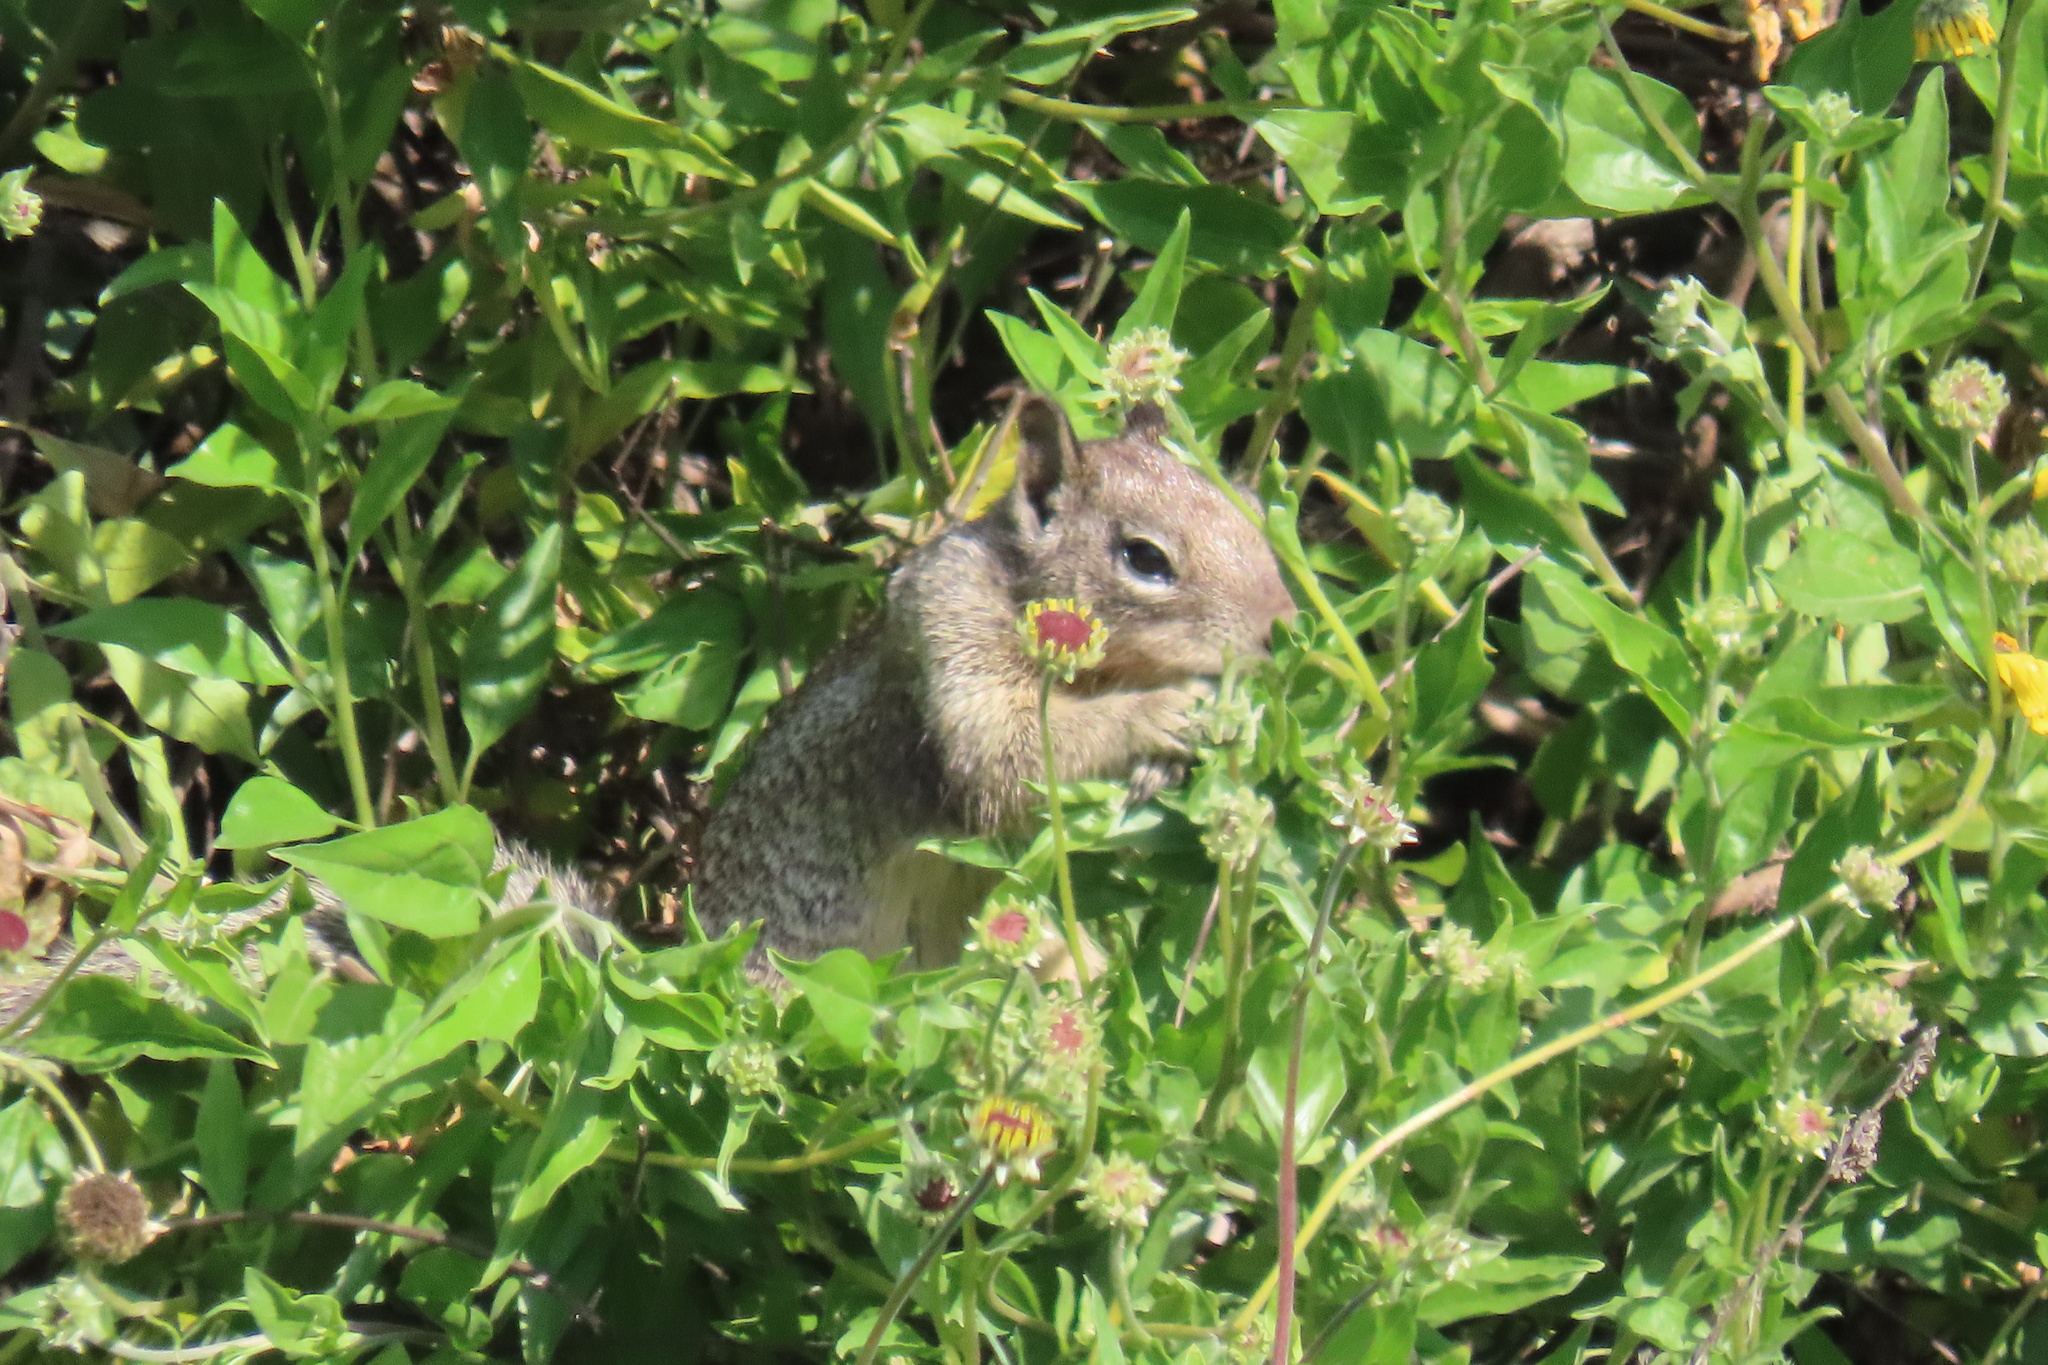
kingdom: Animalia
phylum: Chordata
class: Mammalia
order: Rodentia
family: Sciuridae
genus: Otospermophilus
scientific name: Otospermophilus beecheyi
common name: California ground squirrel
